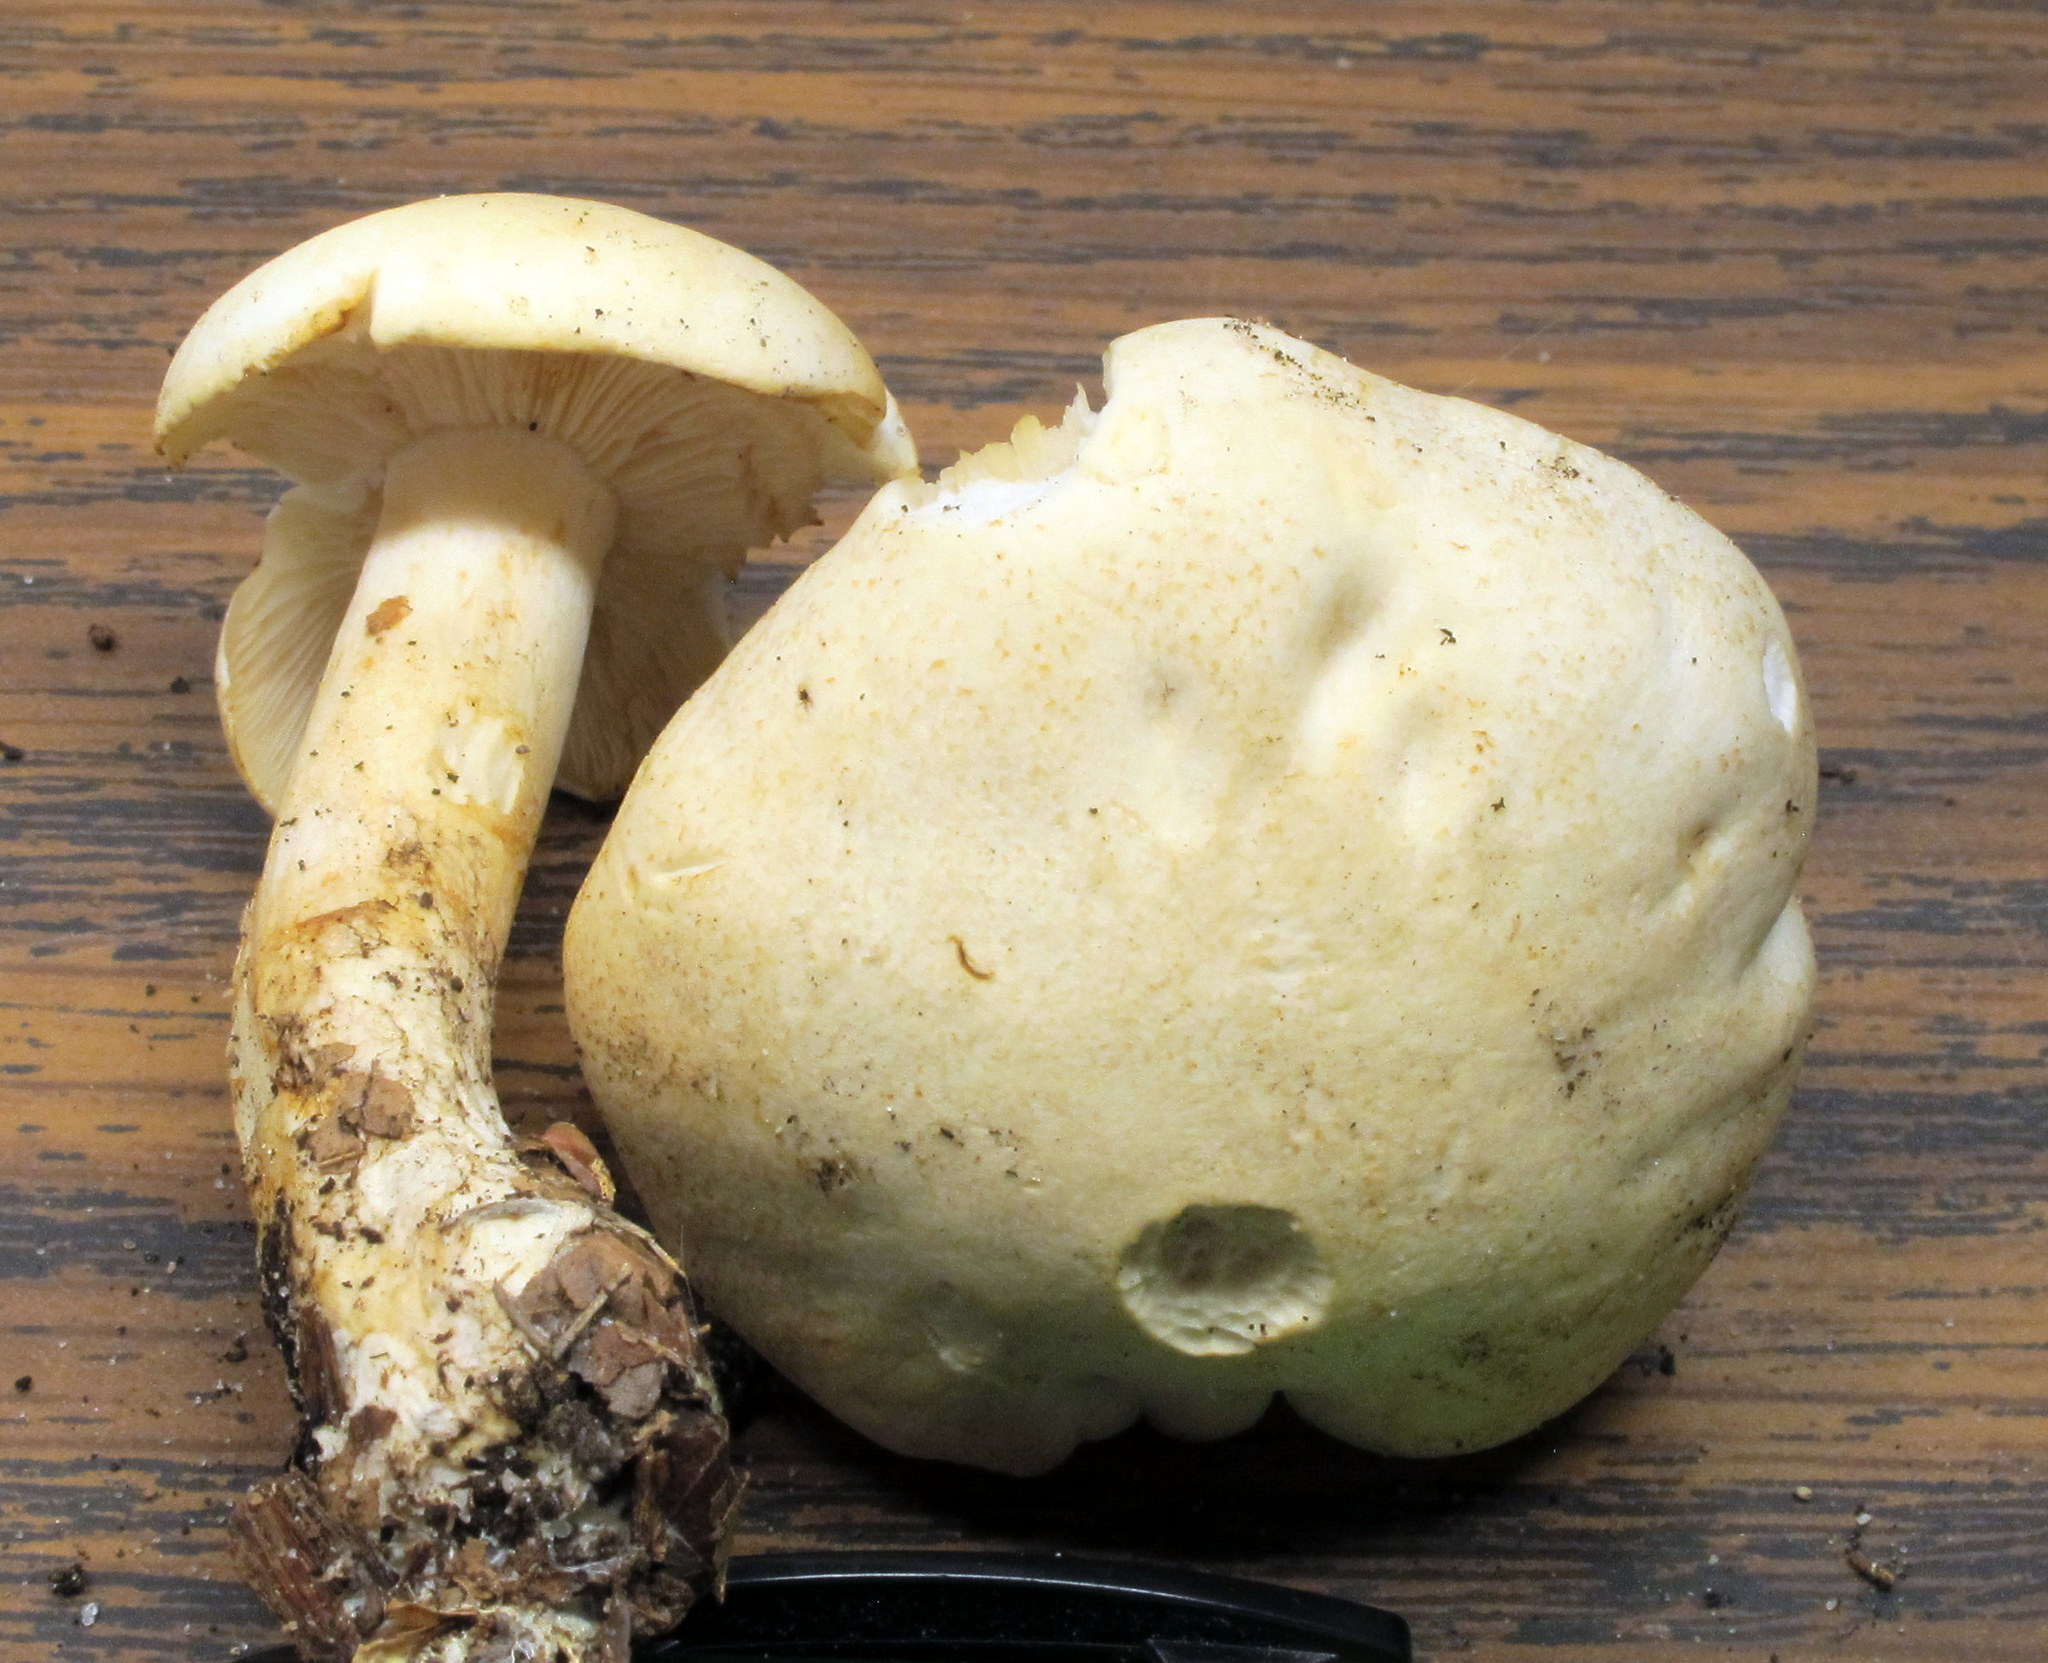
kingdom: Fungi
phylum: Basidiomycota
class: Agaricomycetes
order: Agaricales
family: Tricholomataceae
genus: Tricholoma
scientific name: Tricholoma sulphurescens
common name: Yellow staining knight
